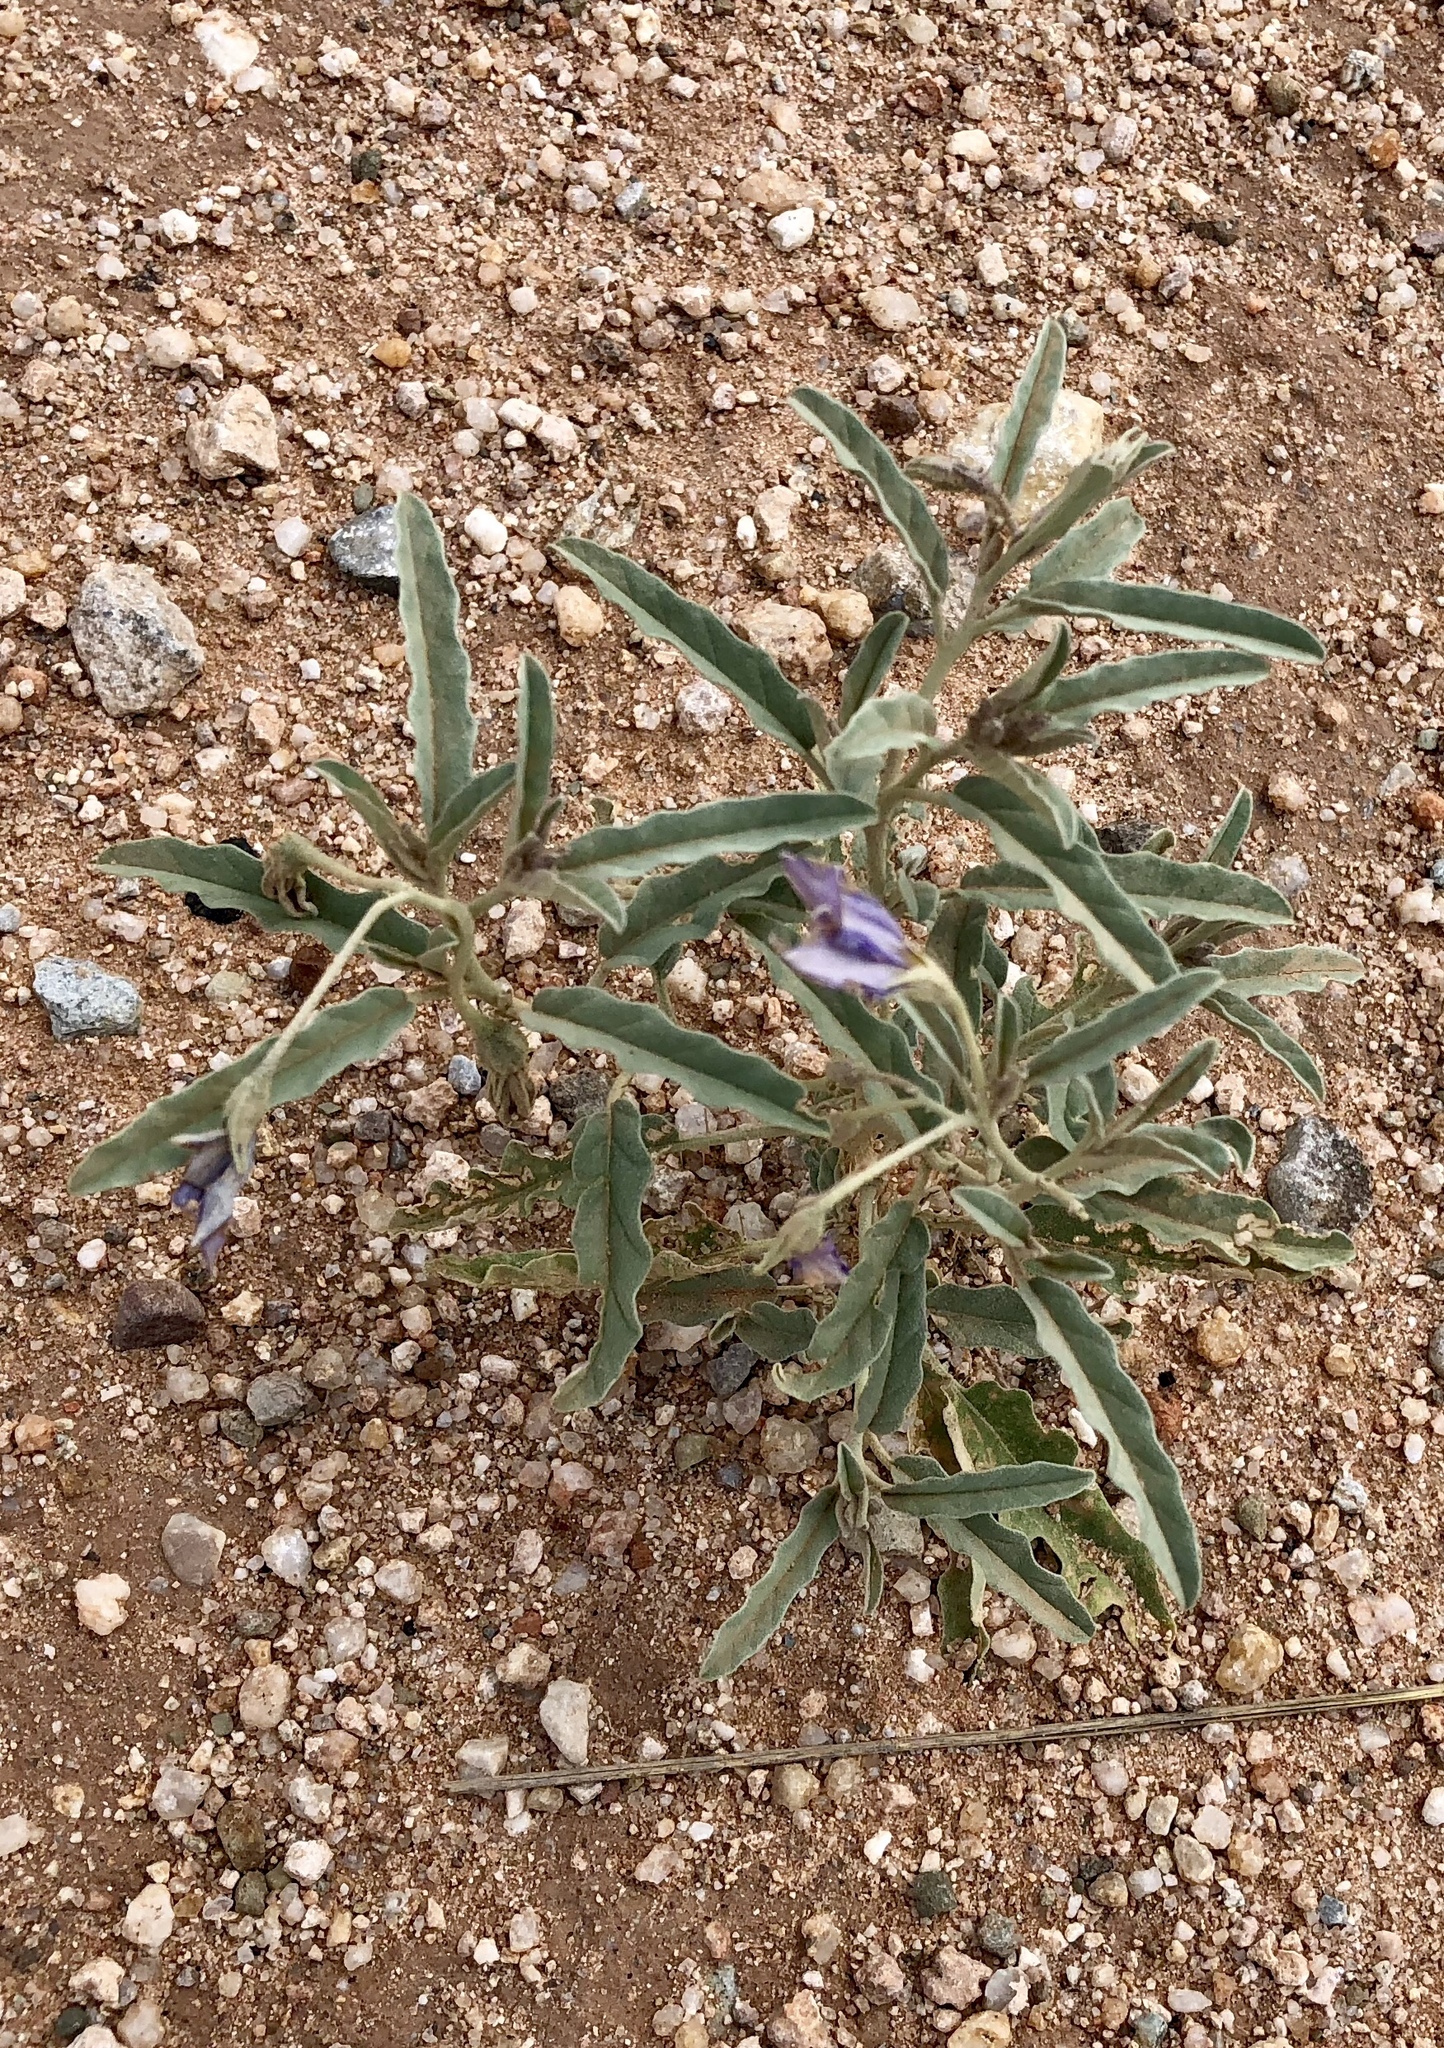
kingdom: Plantae
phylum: Tracheophyta
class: Magnoliopsida
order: Solanales
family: Solanaceae
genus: Solanum
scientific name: Solanum elaeagnifolium
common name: Silverleaf nightshade
